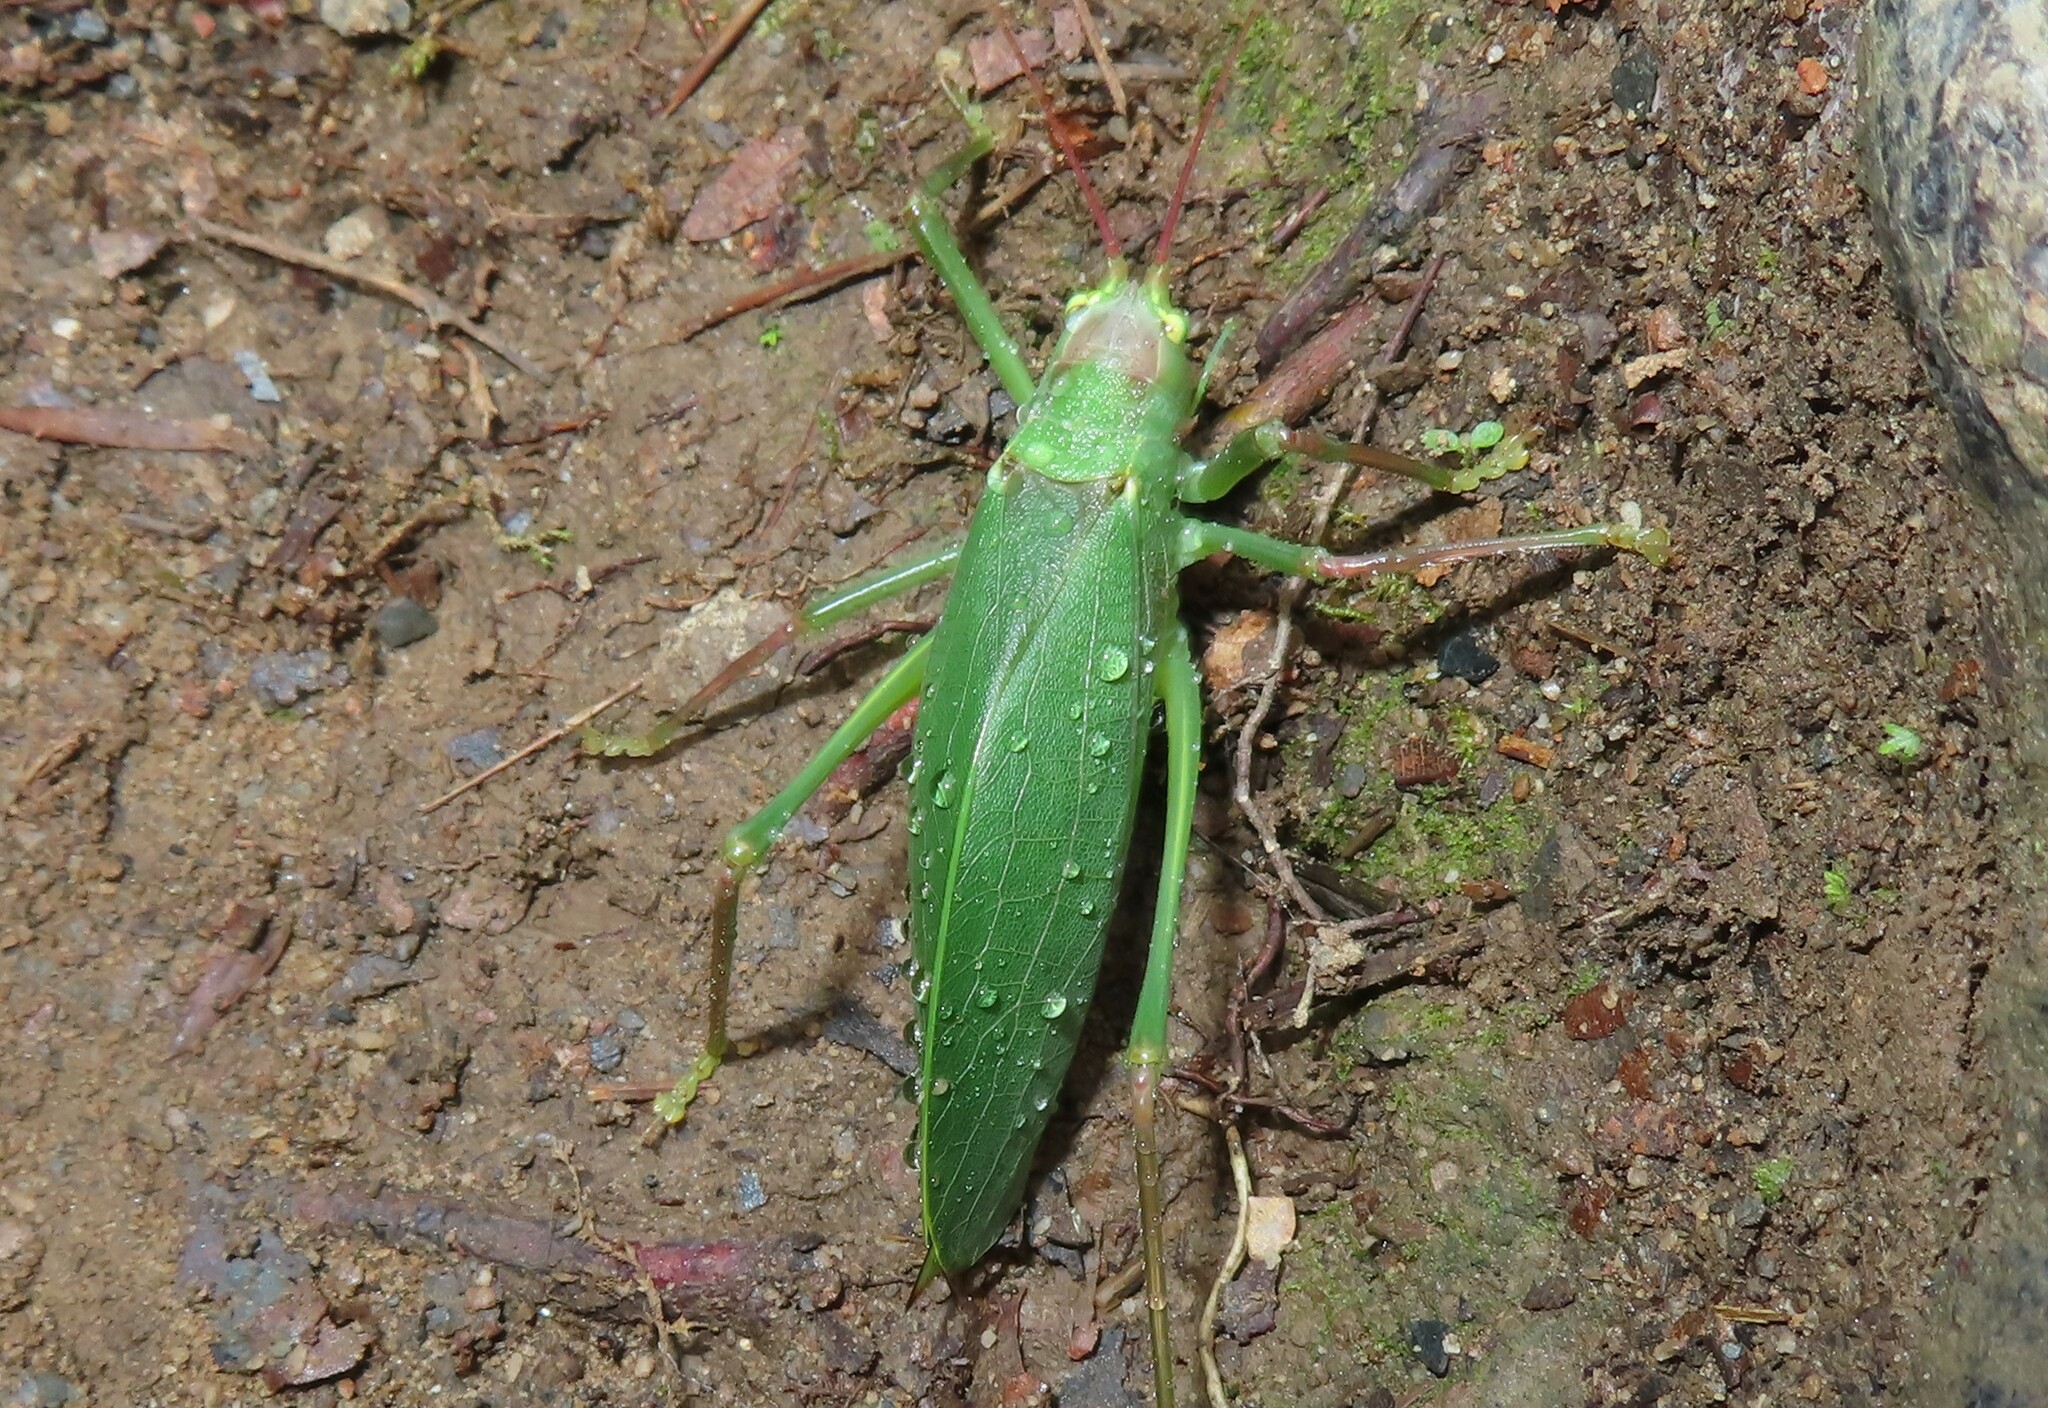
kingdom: Animalia
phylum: Arthropoda
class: Insecta
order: Orthoptera
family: Tettigoniidae
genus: Pterophylla
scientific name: Pterophylla camellifolia
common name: Common true katydid
